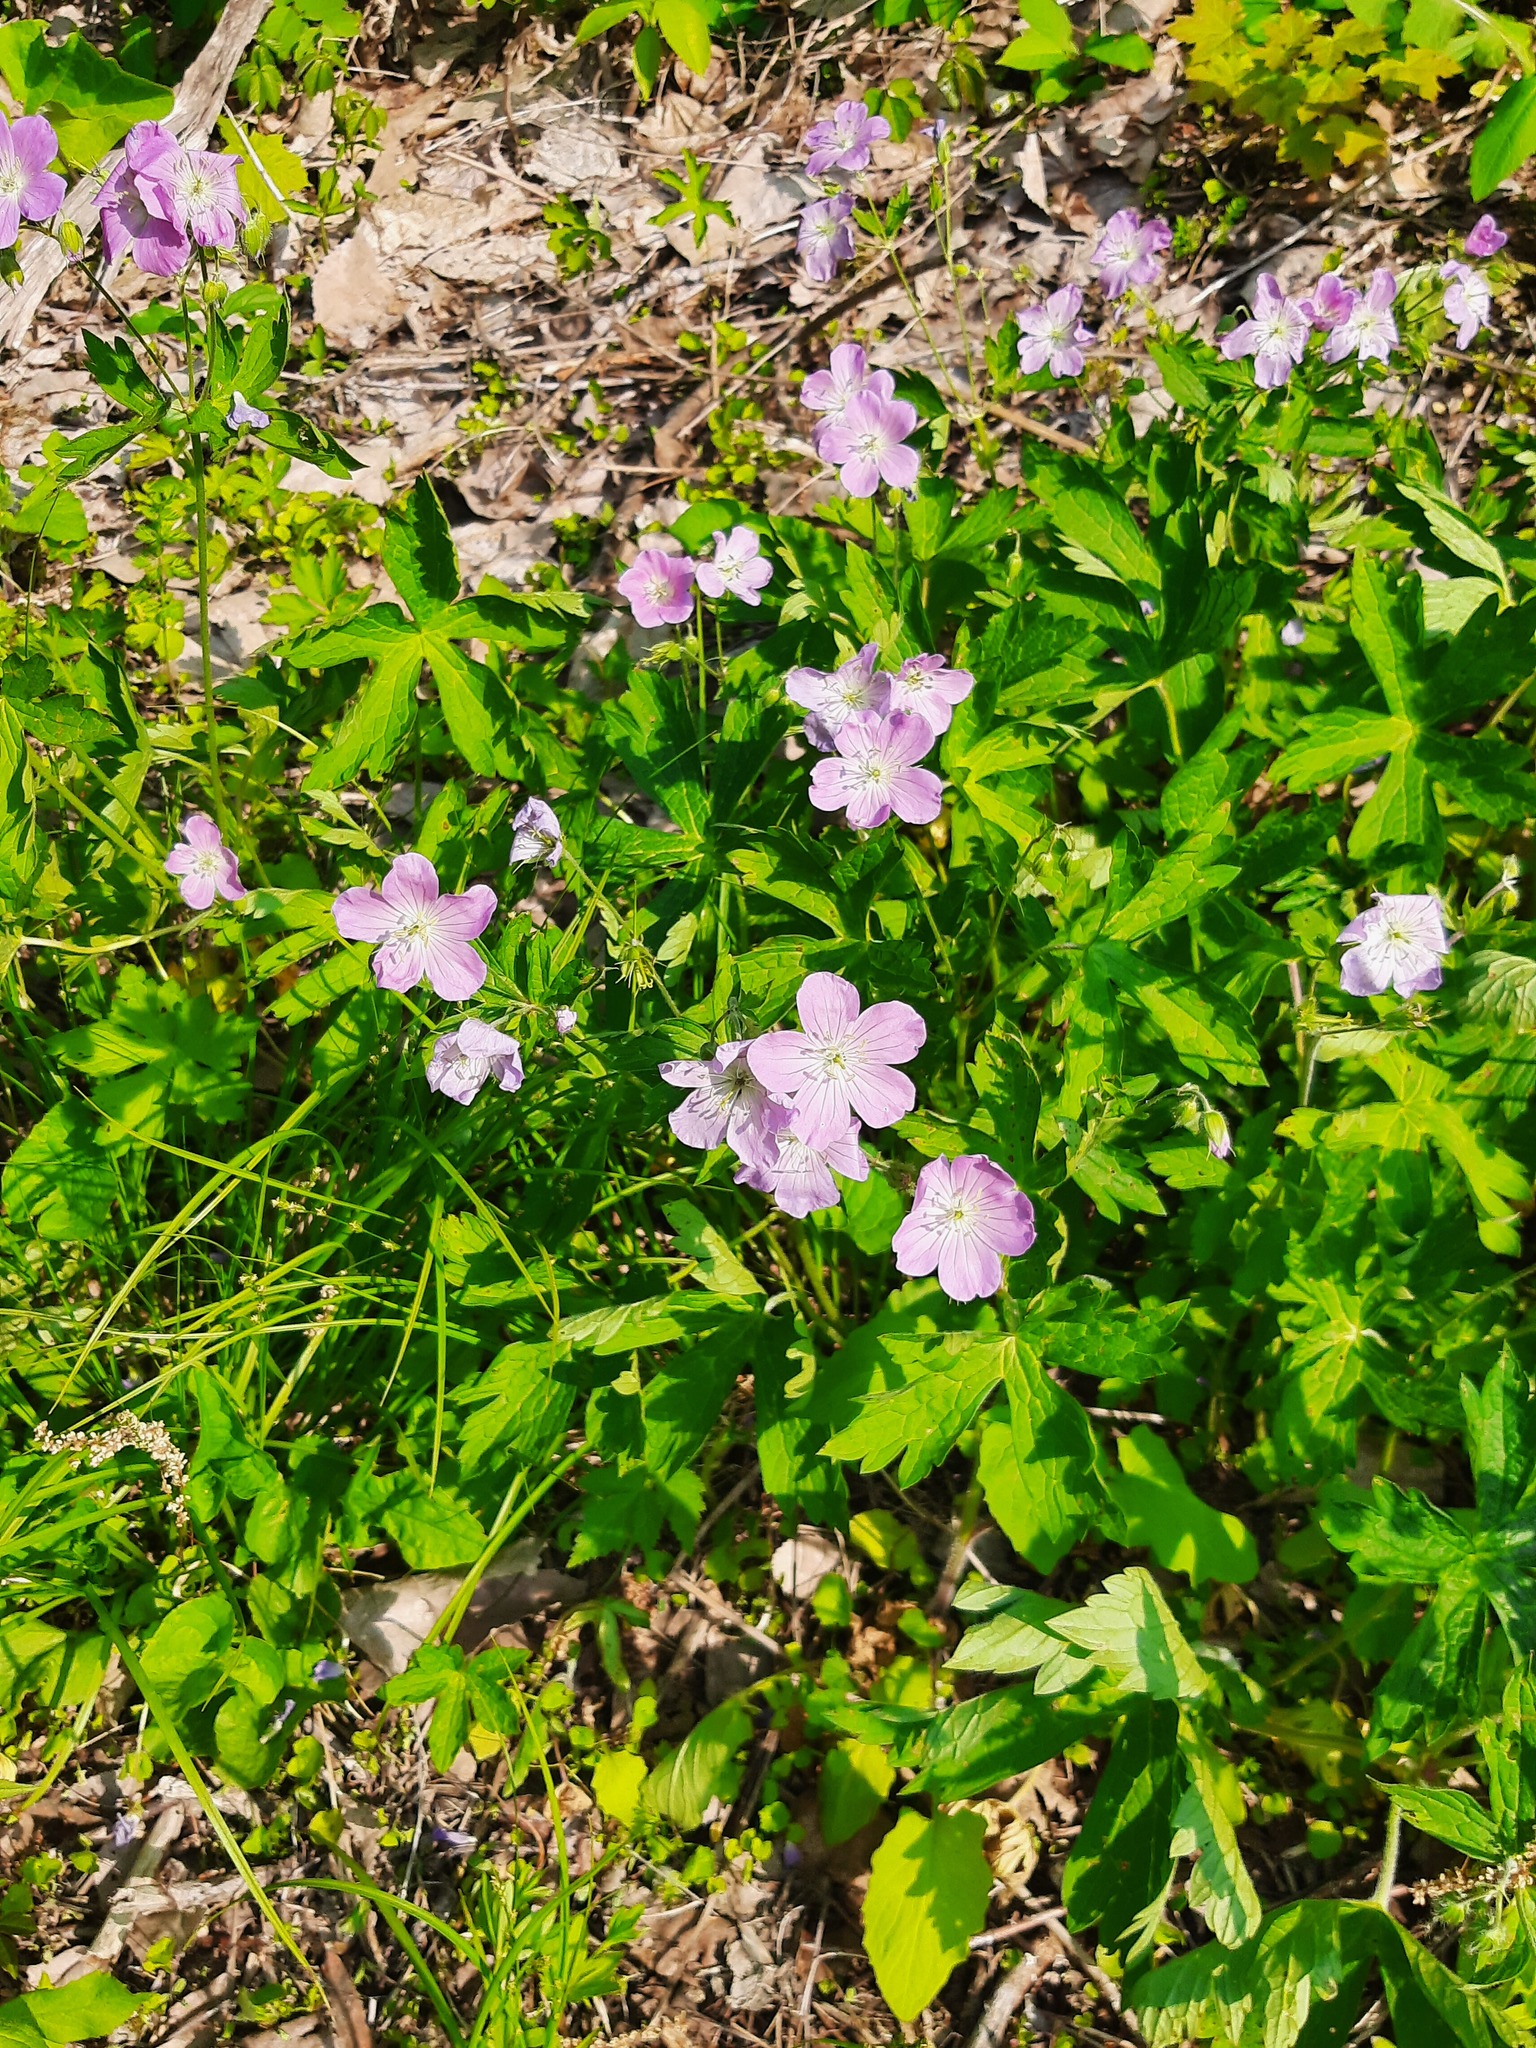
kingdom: Plantae
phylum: Tracheophyta
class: Magnoliopsida
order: Geraniales
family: Geraniaceae
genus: Geranium
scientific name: Geranium maculatum
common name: Spotted geranium
